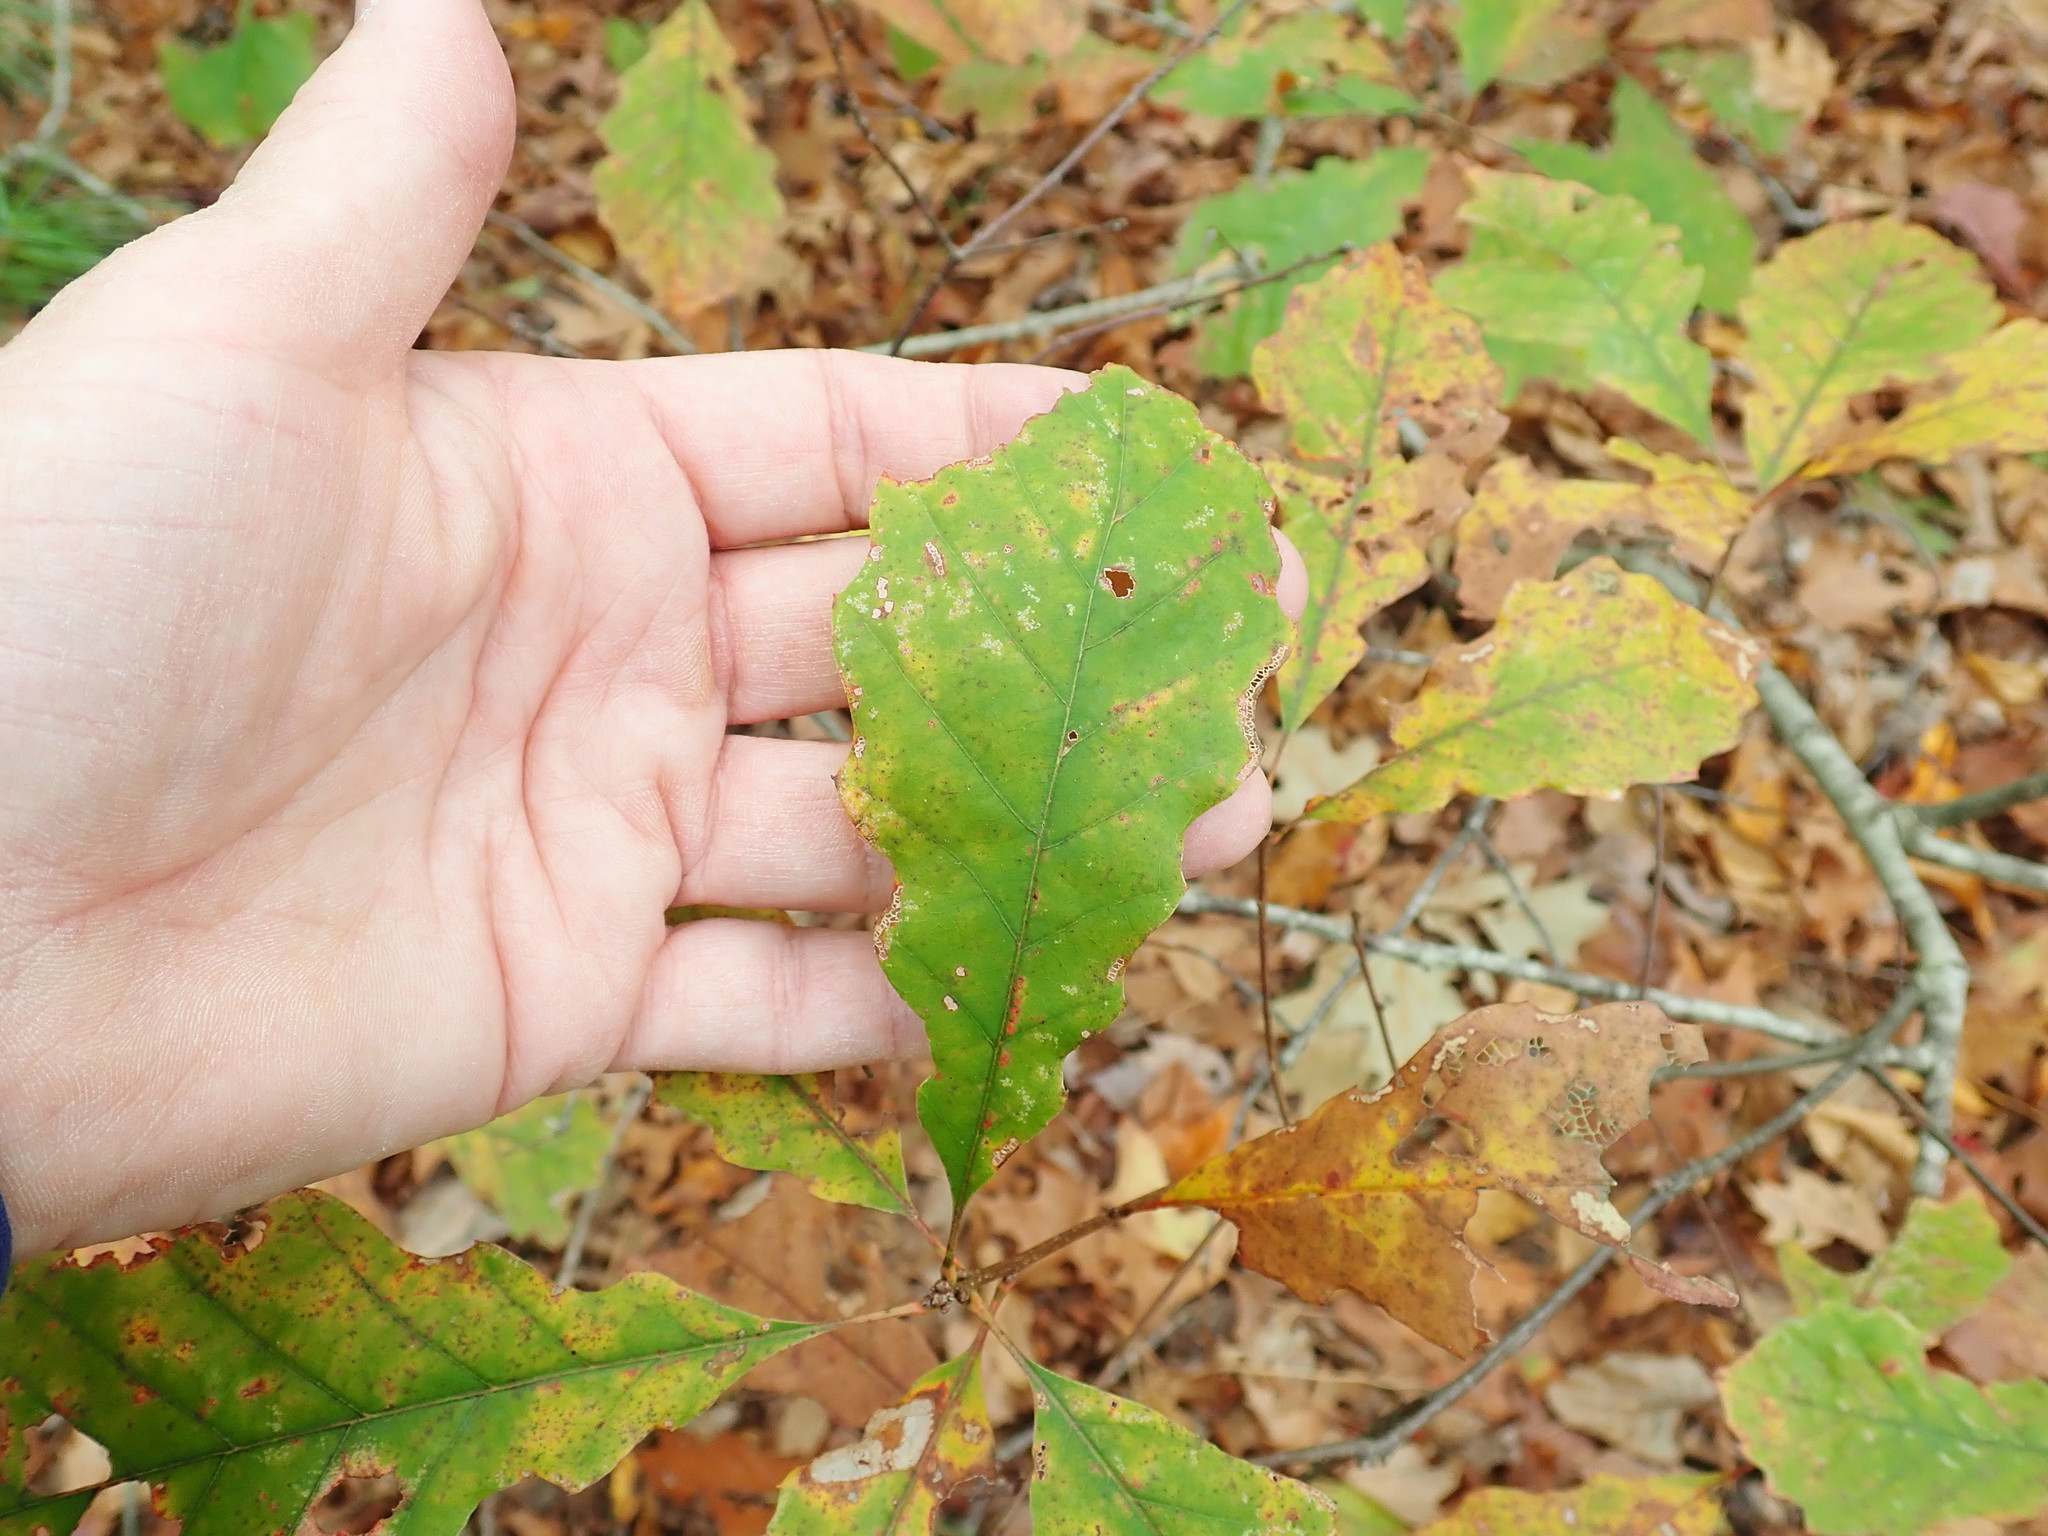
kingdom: Plantae
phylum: Tracheophyta
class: Magnoliopsida
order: Fagales
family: Fagaceae
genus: Quercus
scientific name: Quercus prinoides
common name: Dwarf chinkapin oak
